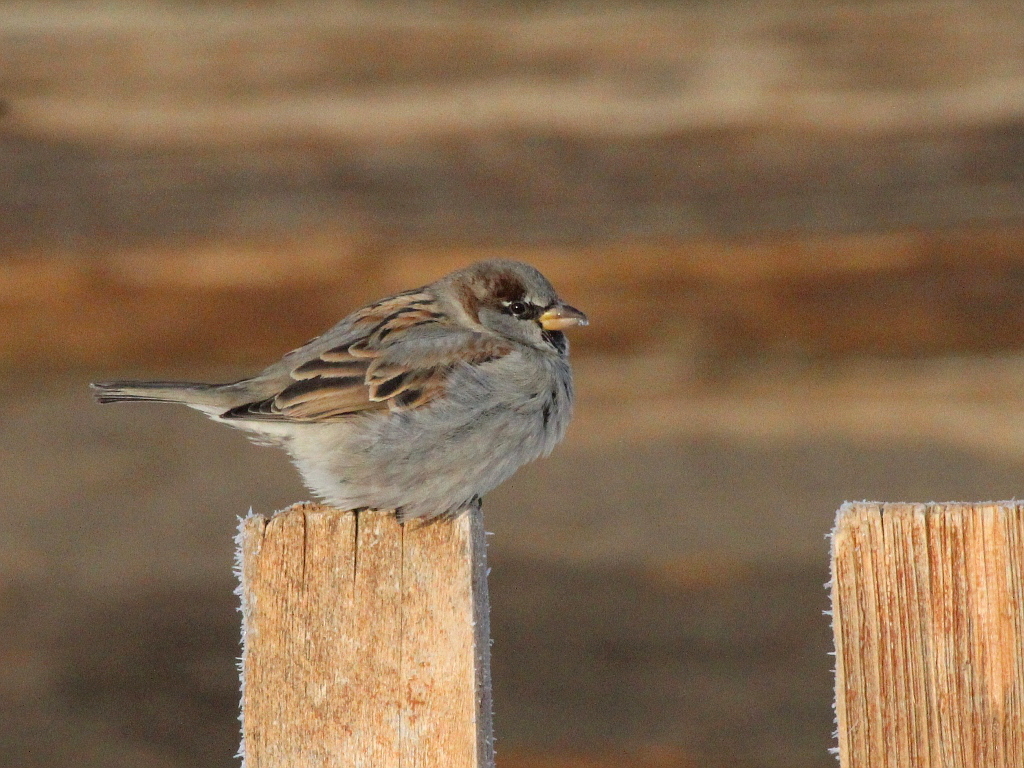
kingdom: Animalia
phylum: Chordata
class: Aves
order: Passeriformes
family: Passeridae
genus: Passer
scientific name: Passer domesticus
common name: House sparrow
